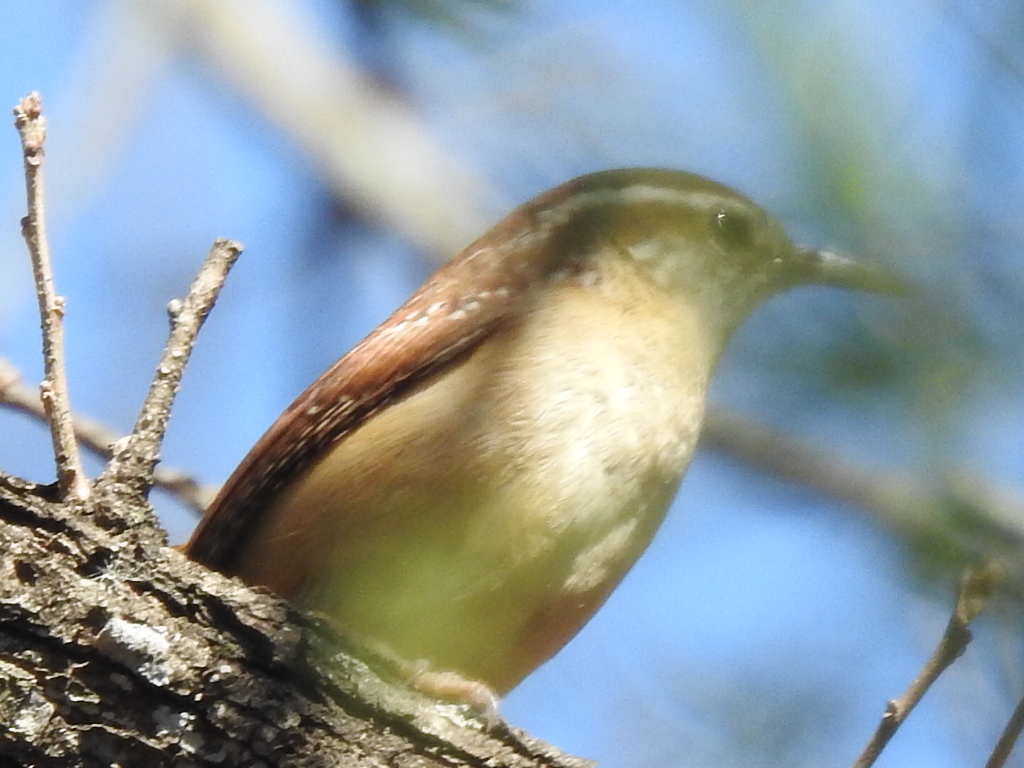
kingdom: Animalia
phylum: Chordata
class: Aves
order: Passeriformes
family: Troglodytidae
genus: Thryothorus
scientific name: Thryothorus ludovicianus
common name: Carolina wren
